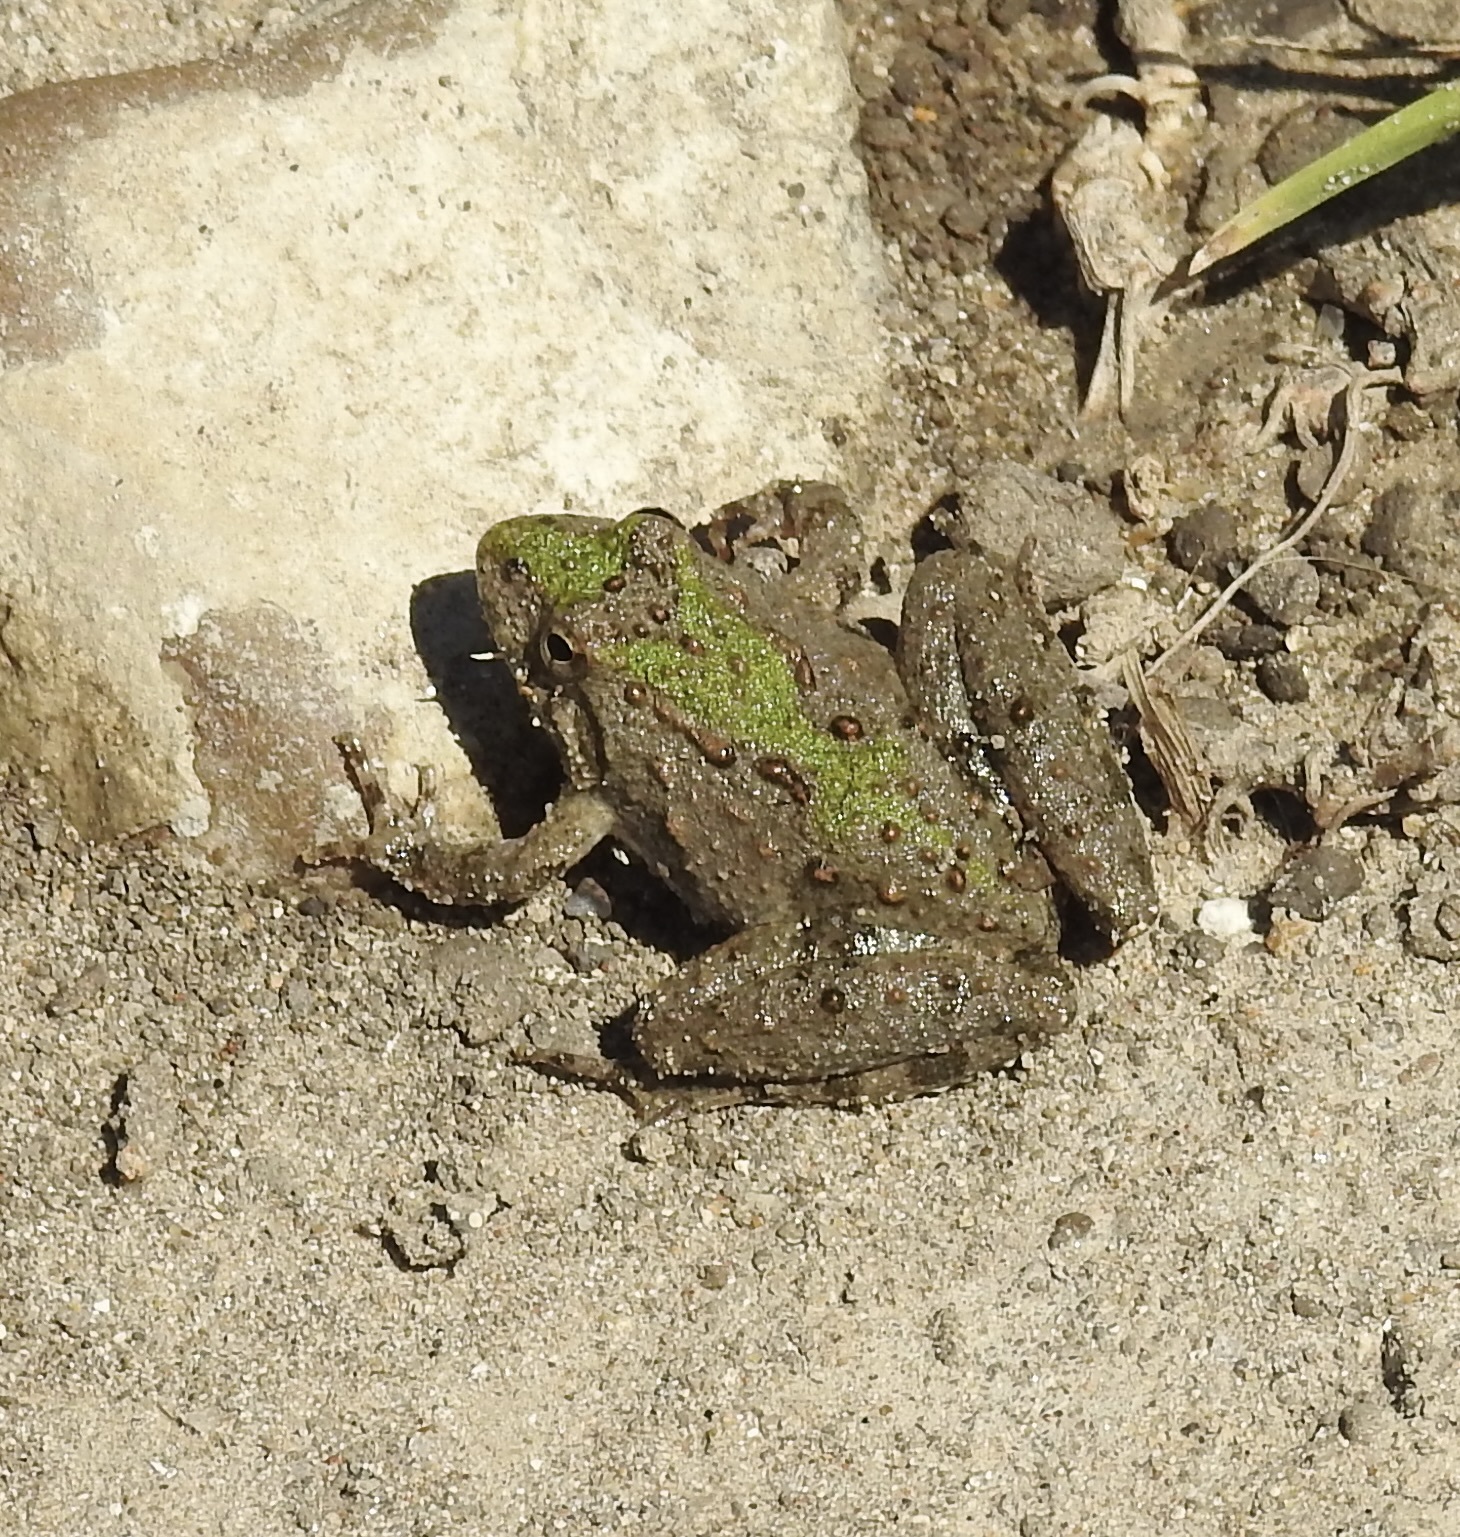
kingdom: Animalia
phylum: Chordata
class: Amphibia
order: Anura
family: Hylidae
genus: Acris
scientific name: Acris blanchardi
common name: Blanchard's cricket frog
